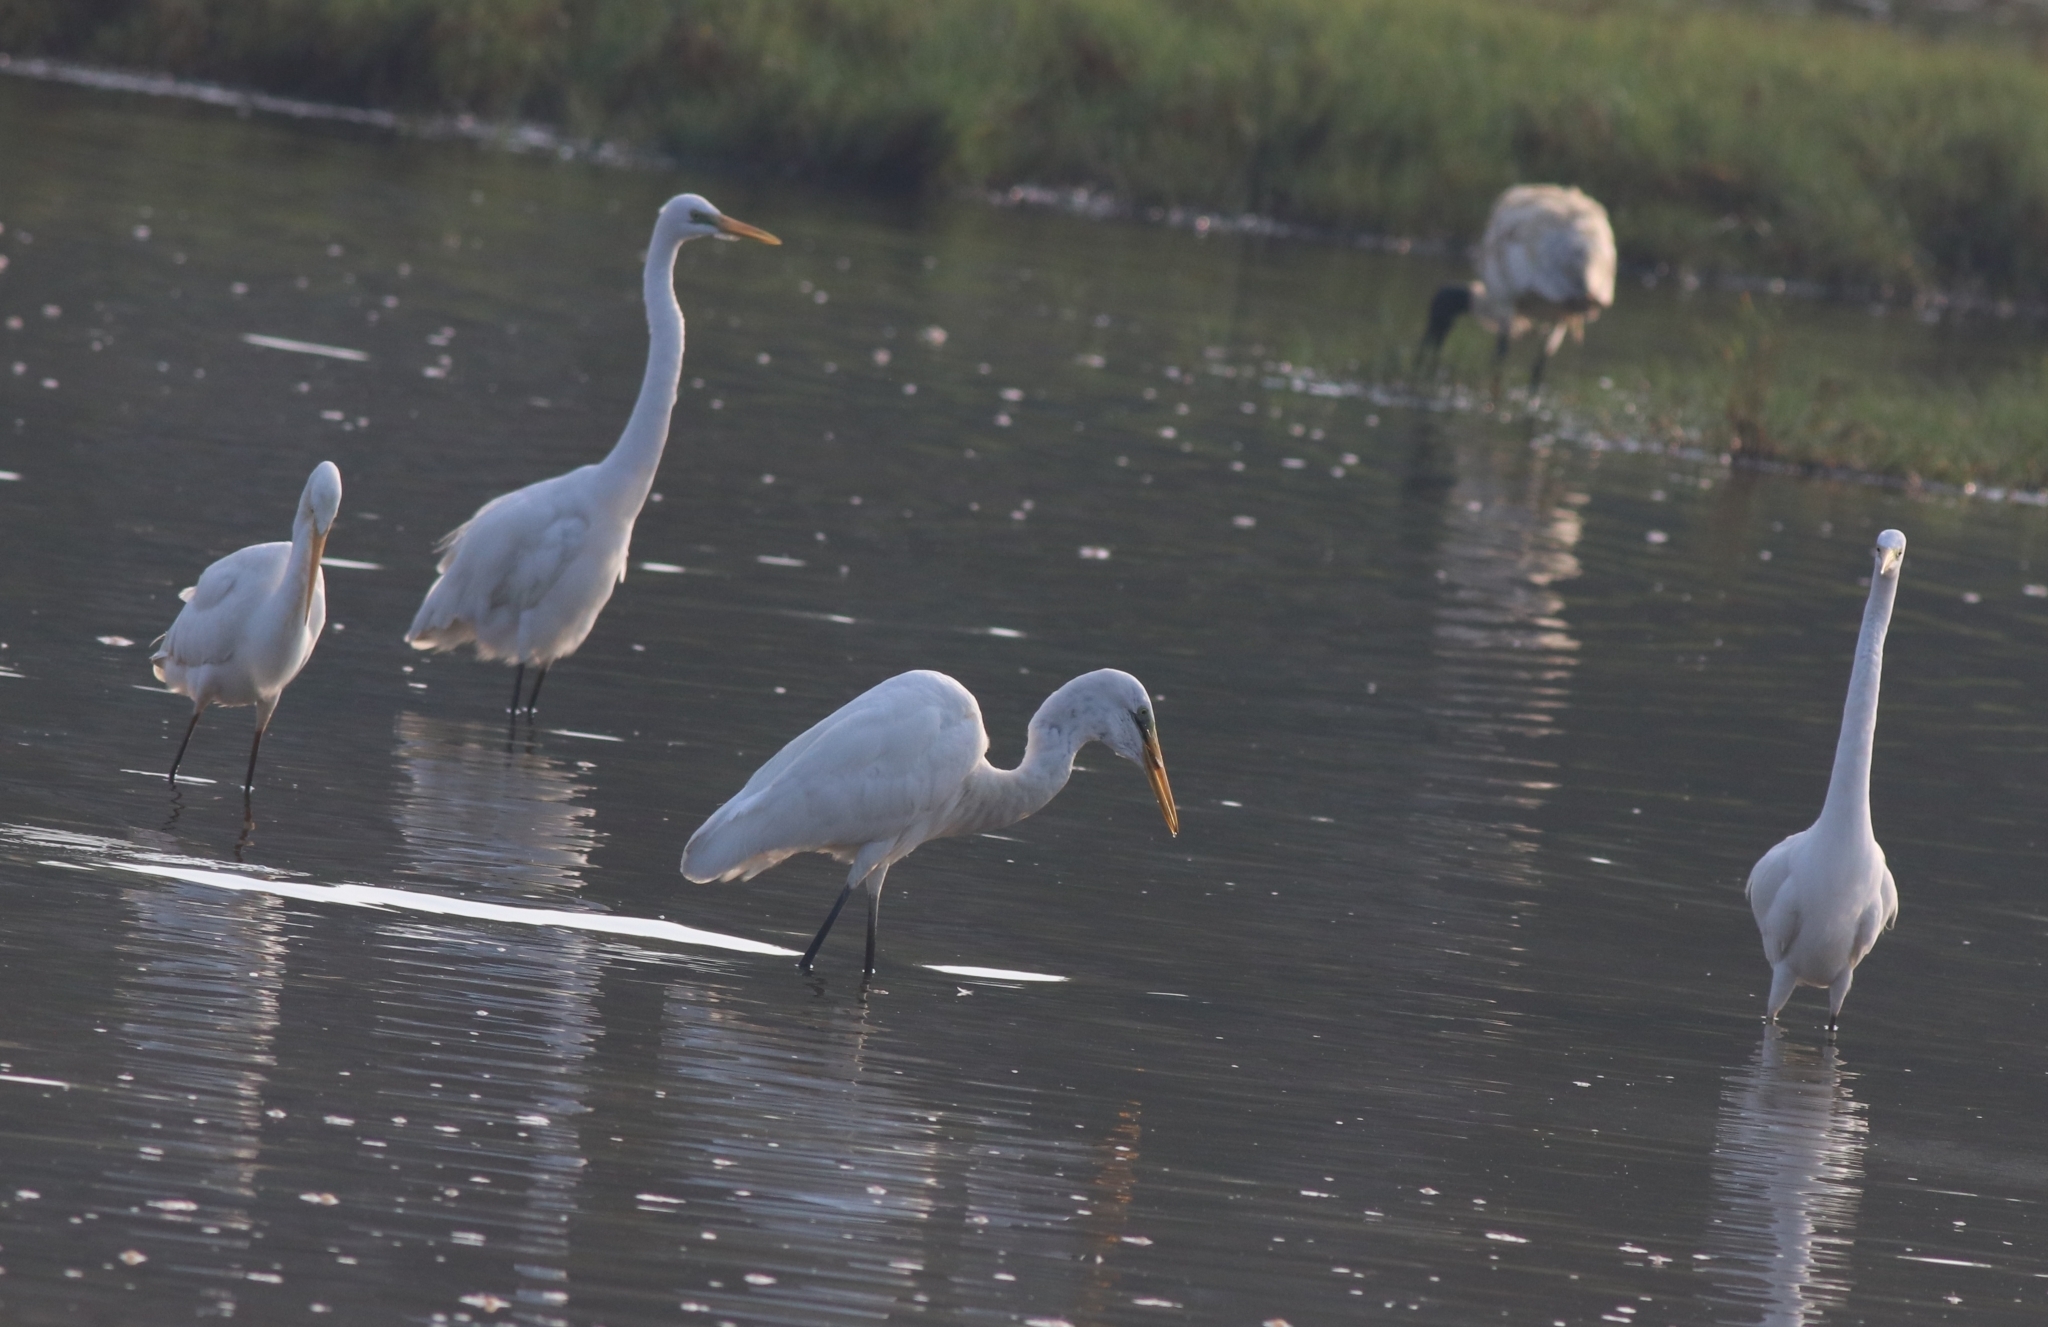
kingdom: Animalia
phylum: Chordata
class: Aves
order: Pelecaniformes
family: Ardeidae
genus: Ardea
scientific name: Ardea alba
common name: Great egret
